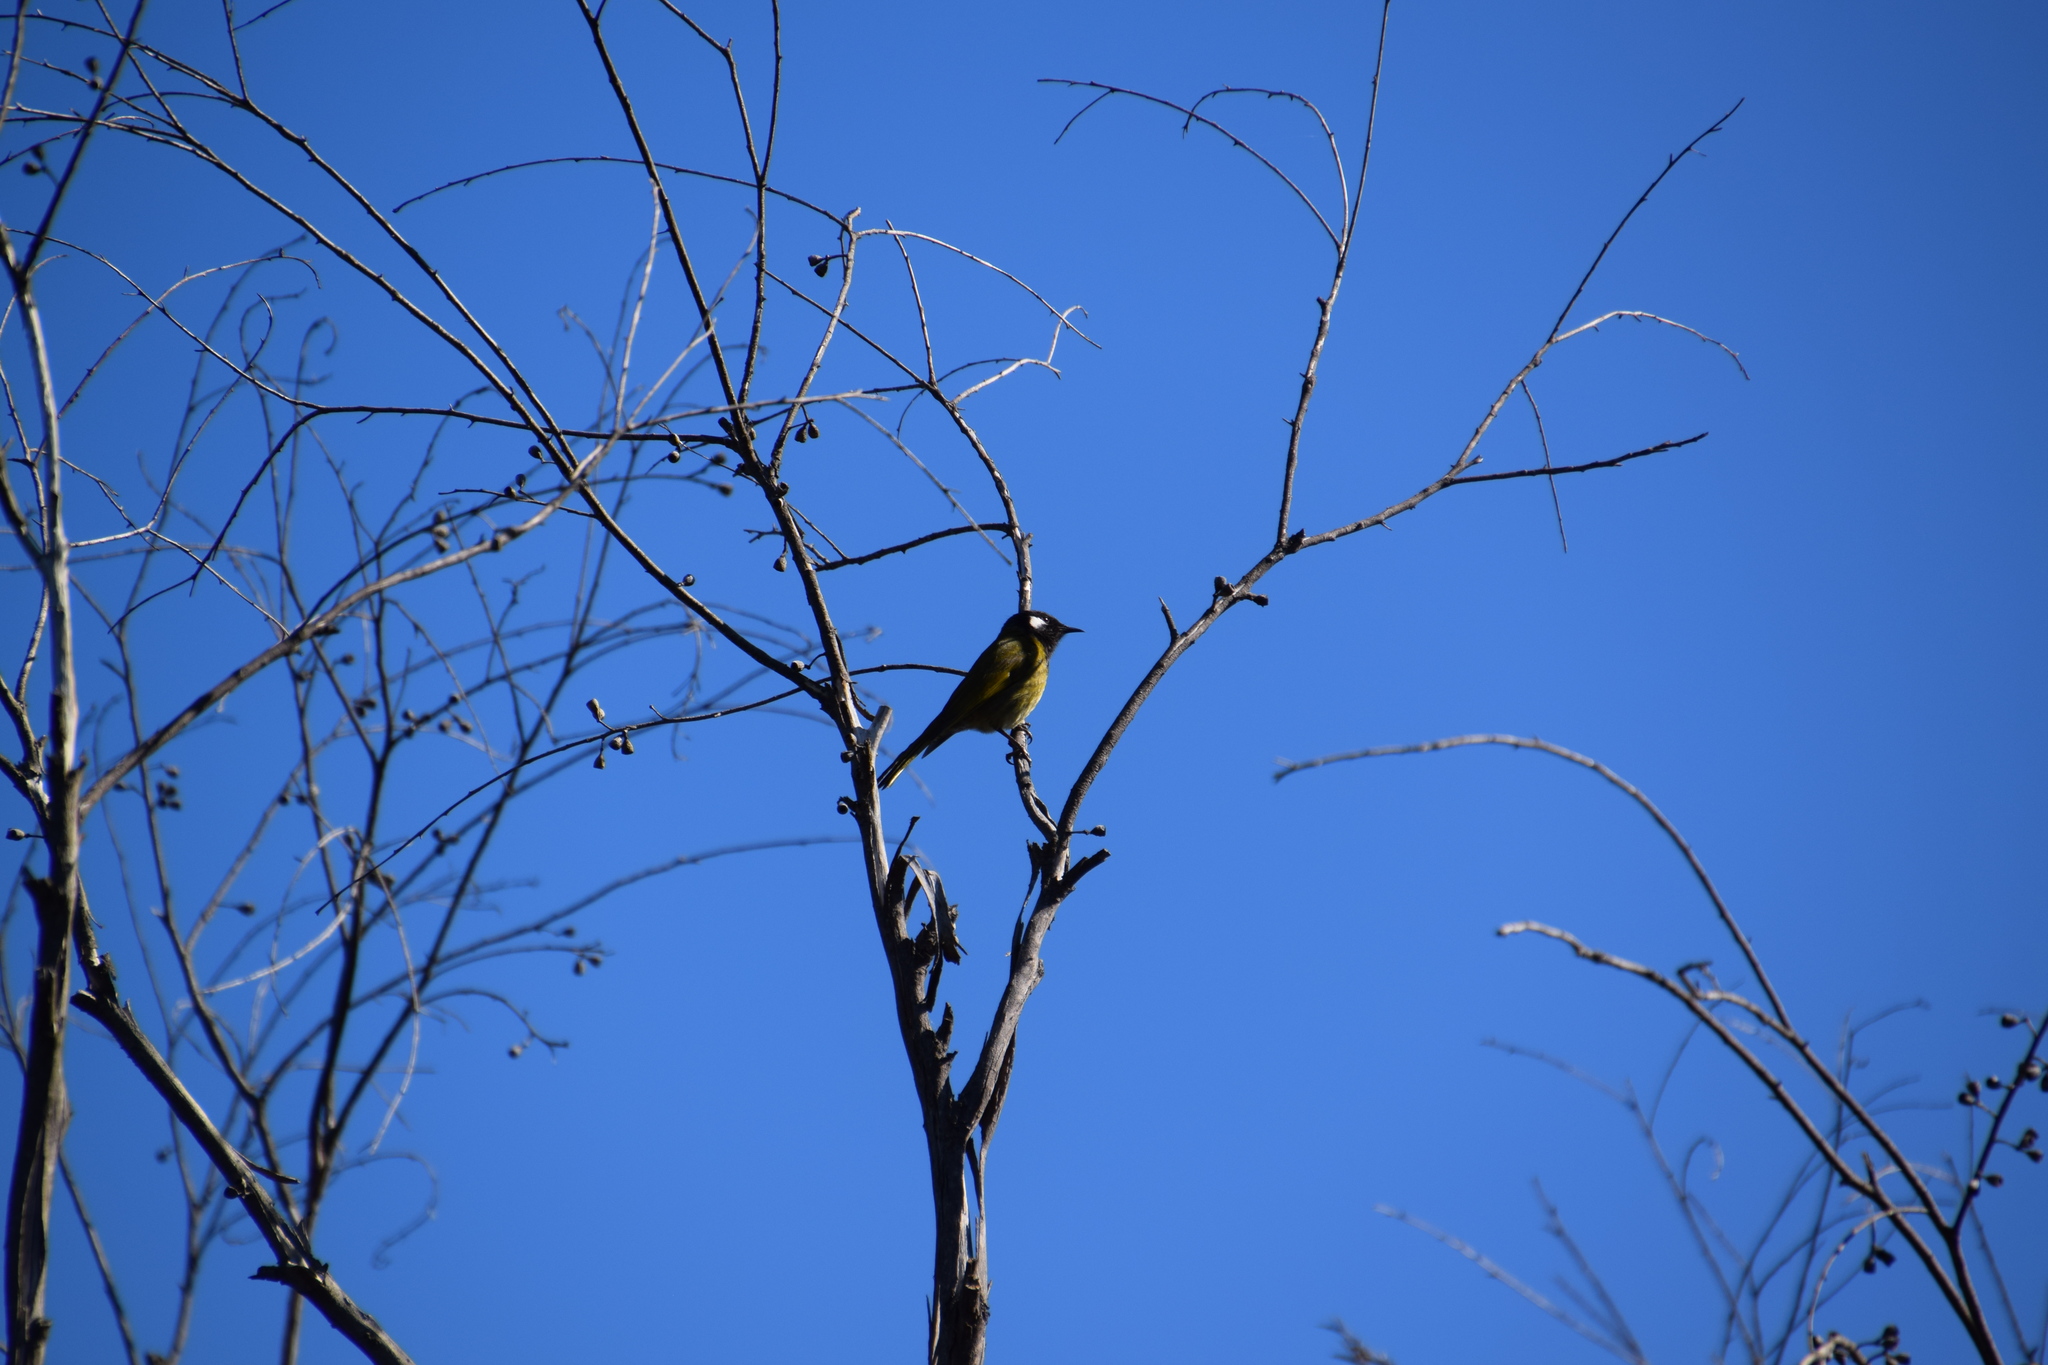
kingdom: Animalia
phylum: Chordata
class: Aves
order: Passeriformes
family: Meliphagidae
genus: Nesoptilotis
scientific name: Nesoptilotis leucotis
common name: White-eared honeyeater
